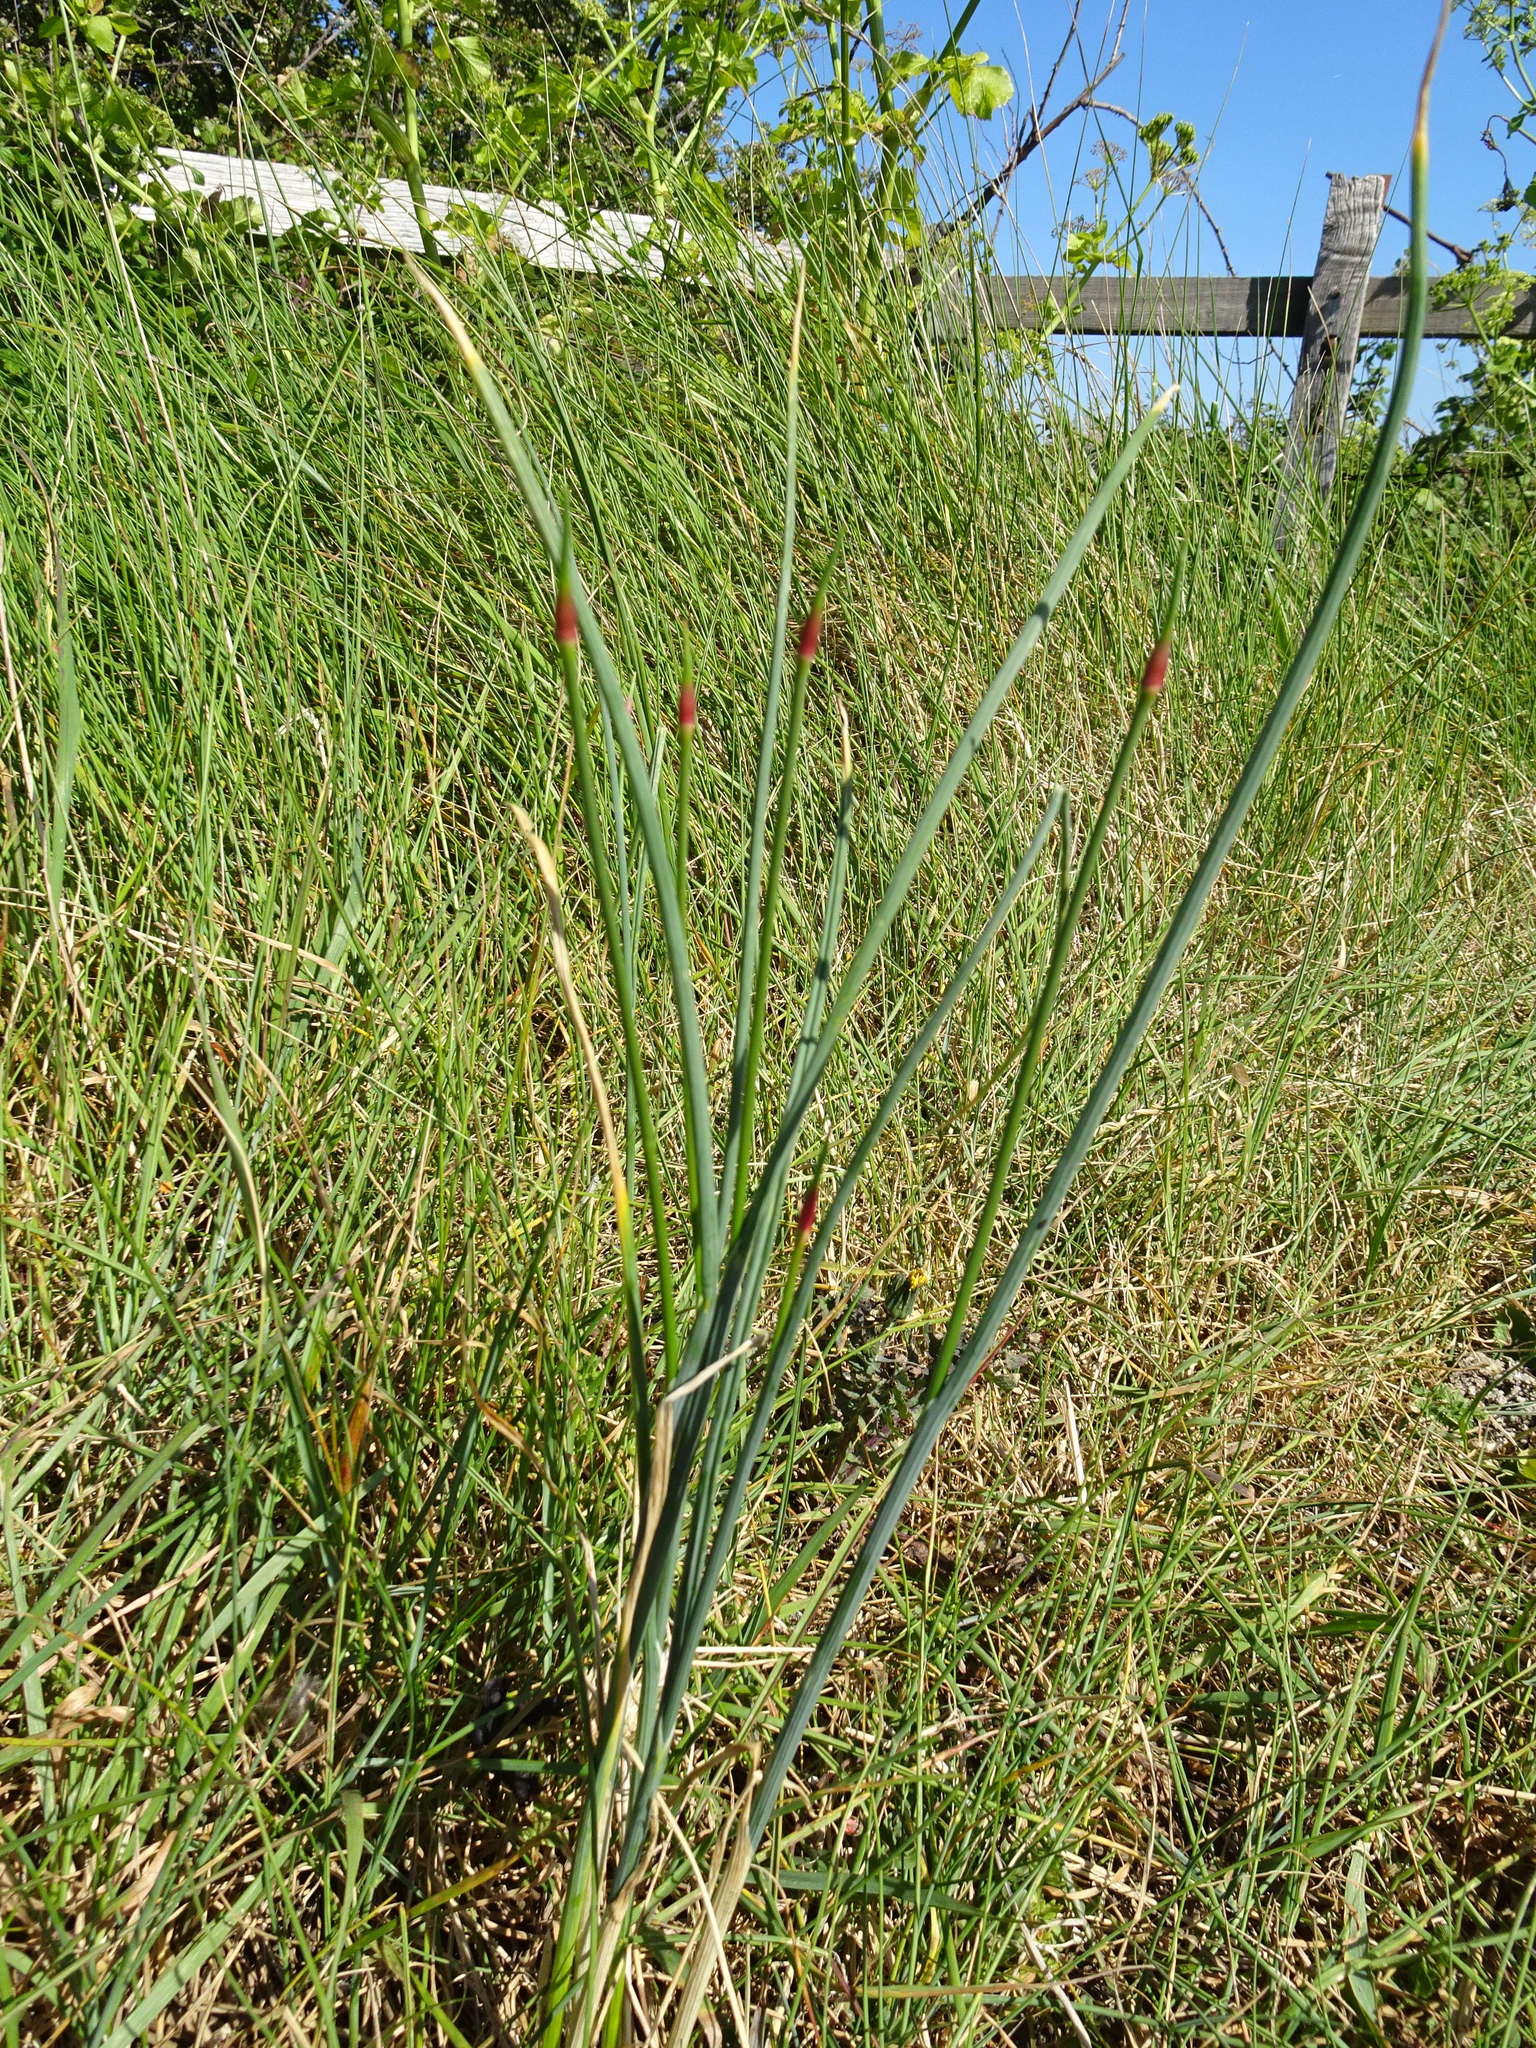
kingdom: Plantae
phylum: Tracheophyta
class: Liliopsida
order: Asparagales
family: Amaryllidaceae
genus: Allium
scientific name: Allium vineale
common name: Crow garlic
